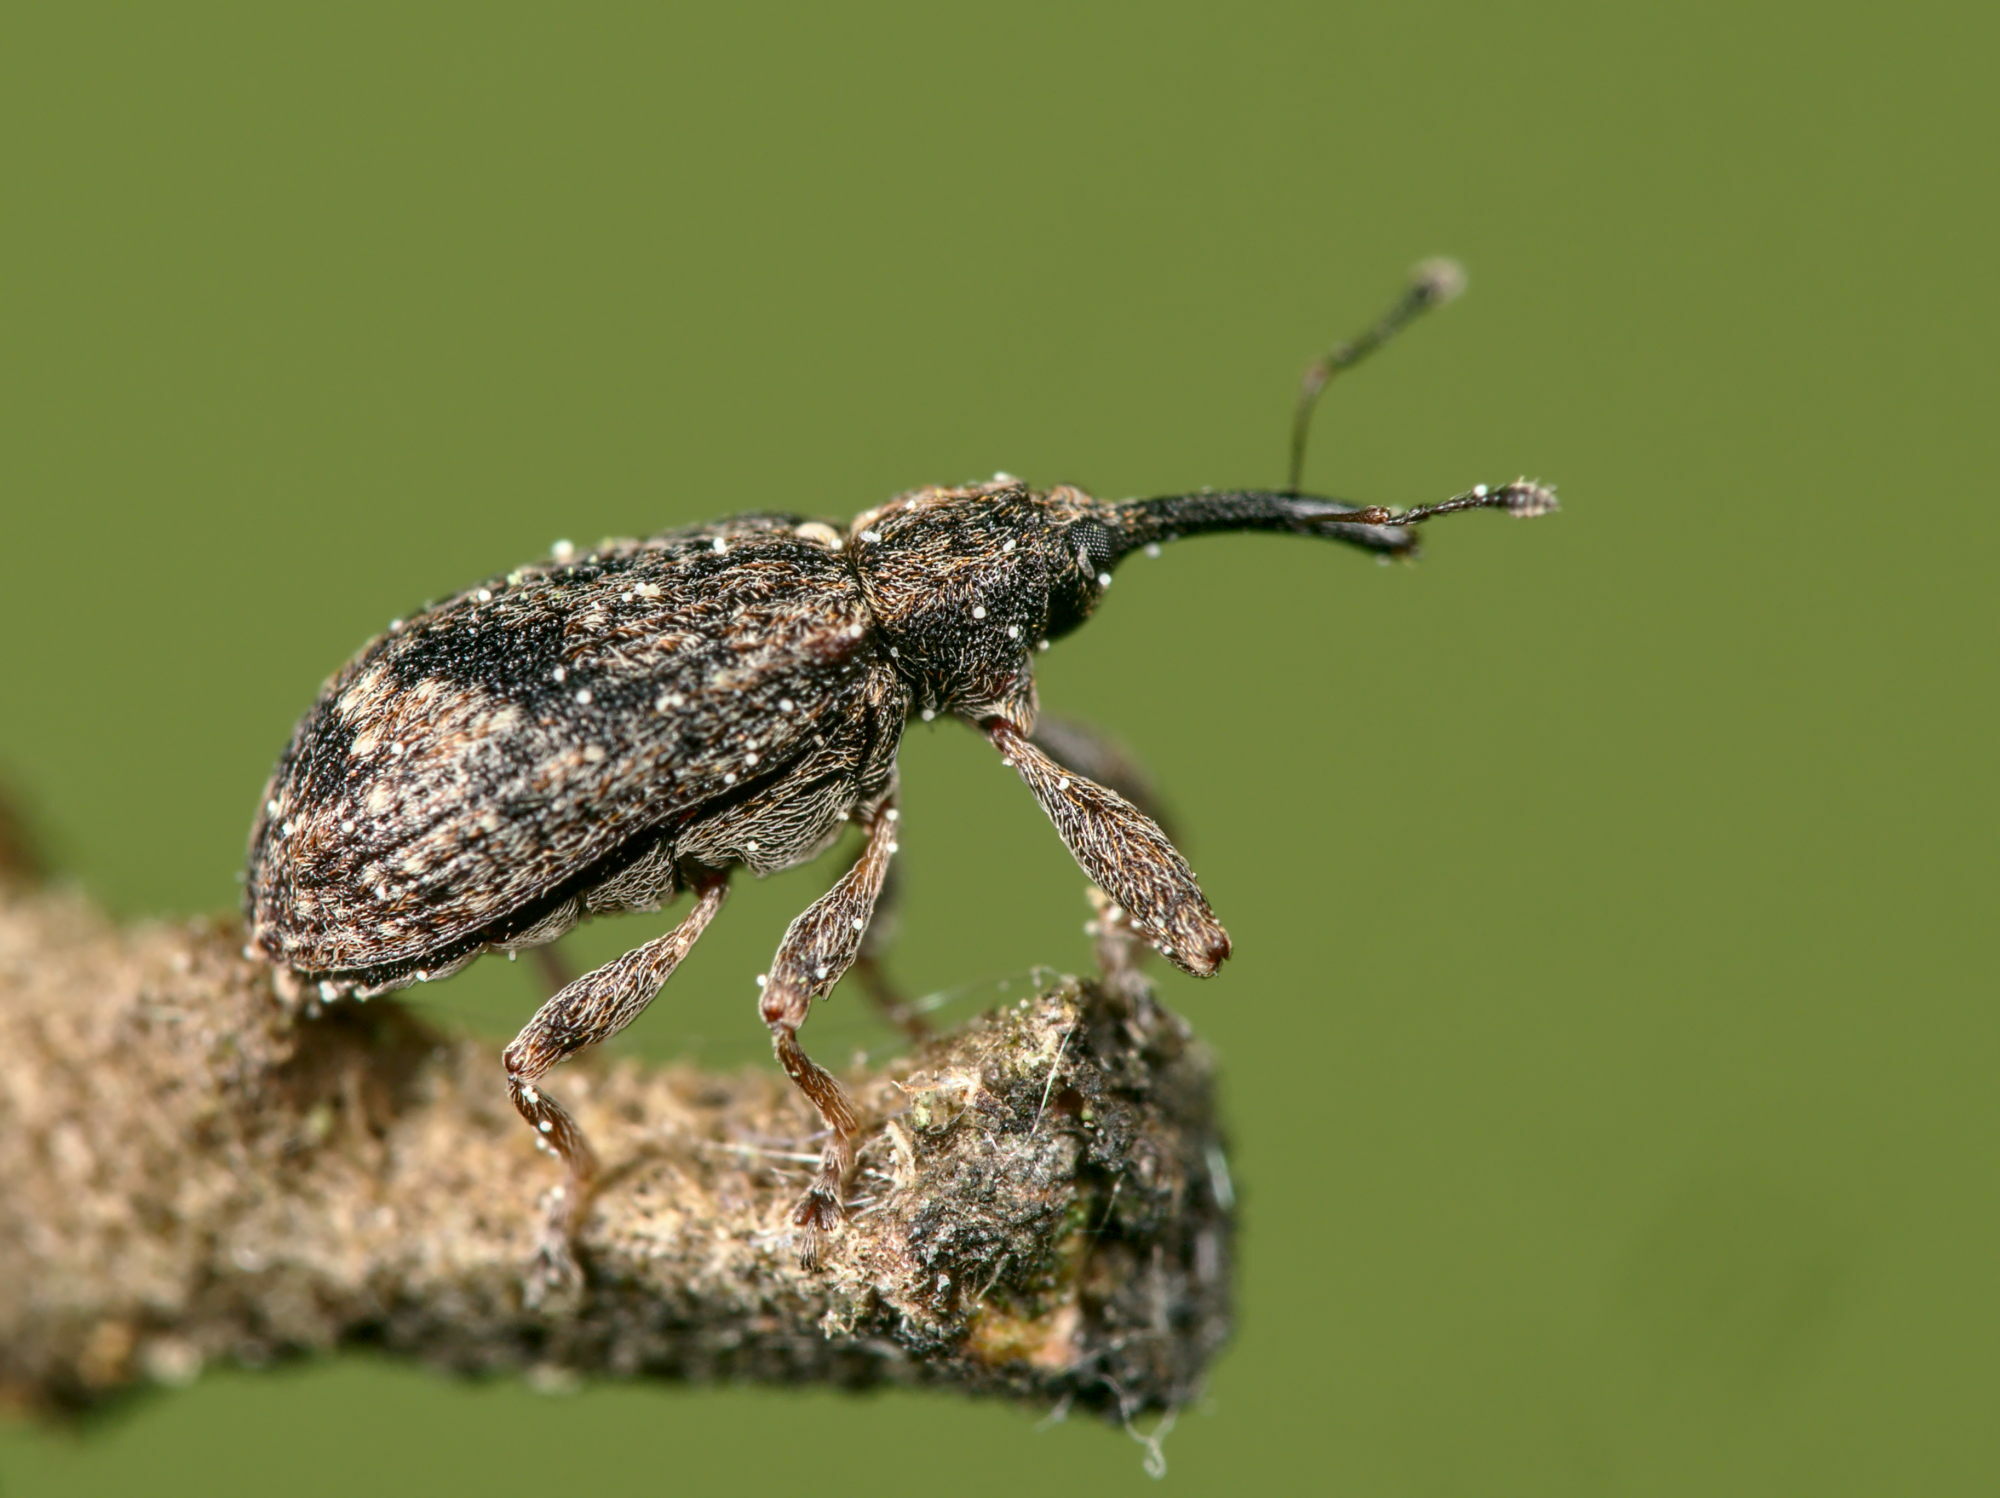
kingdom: Animalia
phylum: Arthropoda
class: Insecta
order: Coleoptera
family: Curculionidae
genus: Anthonomus
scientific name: Anthonomus pomorum
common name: Apple-blossom weevil
